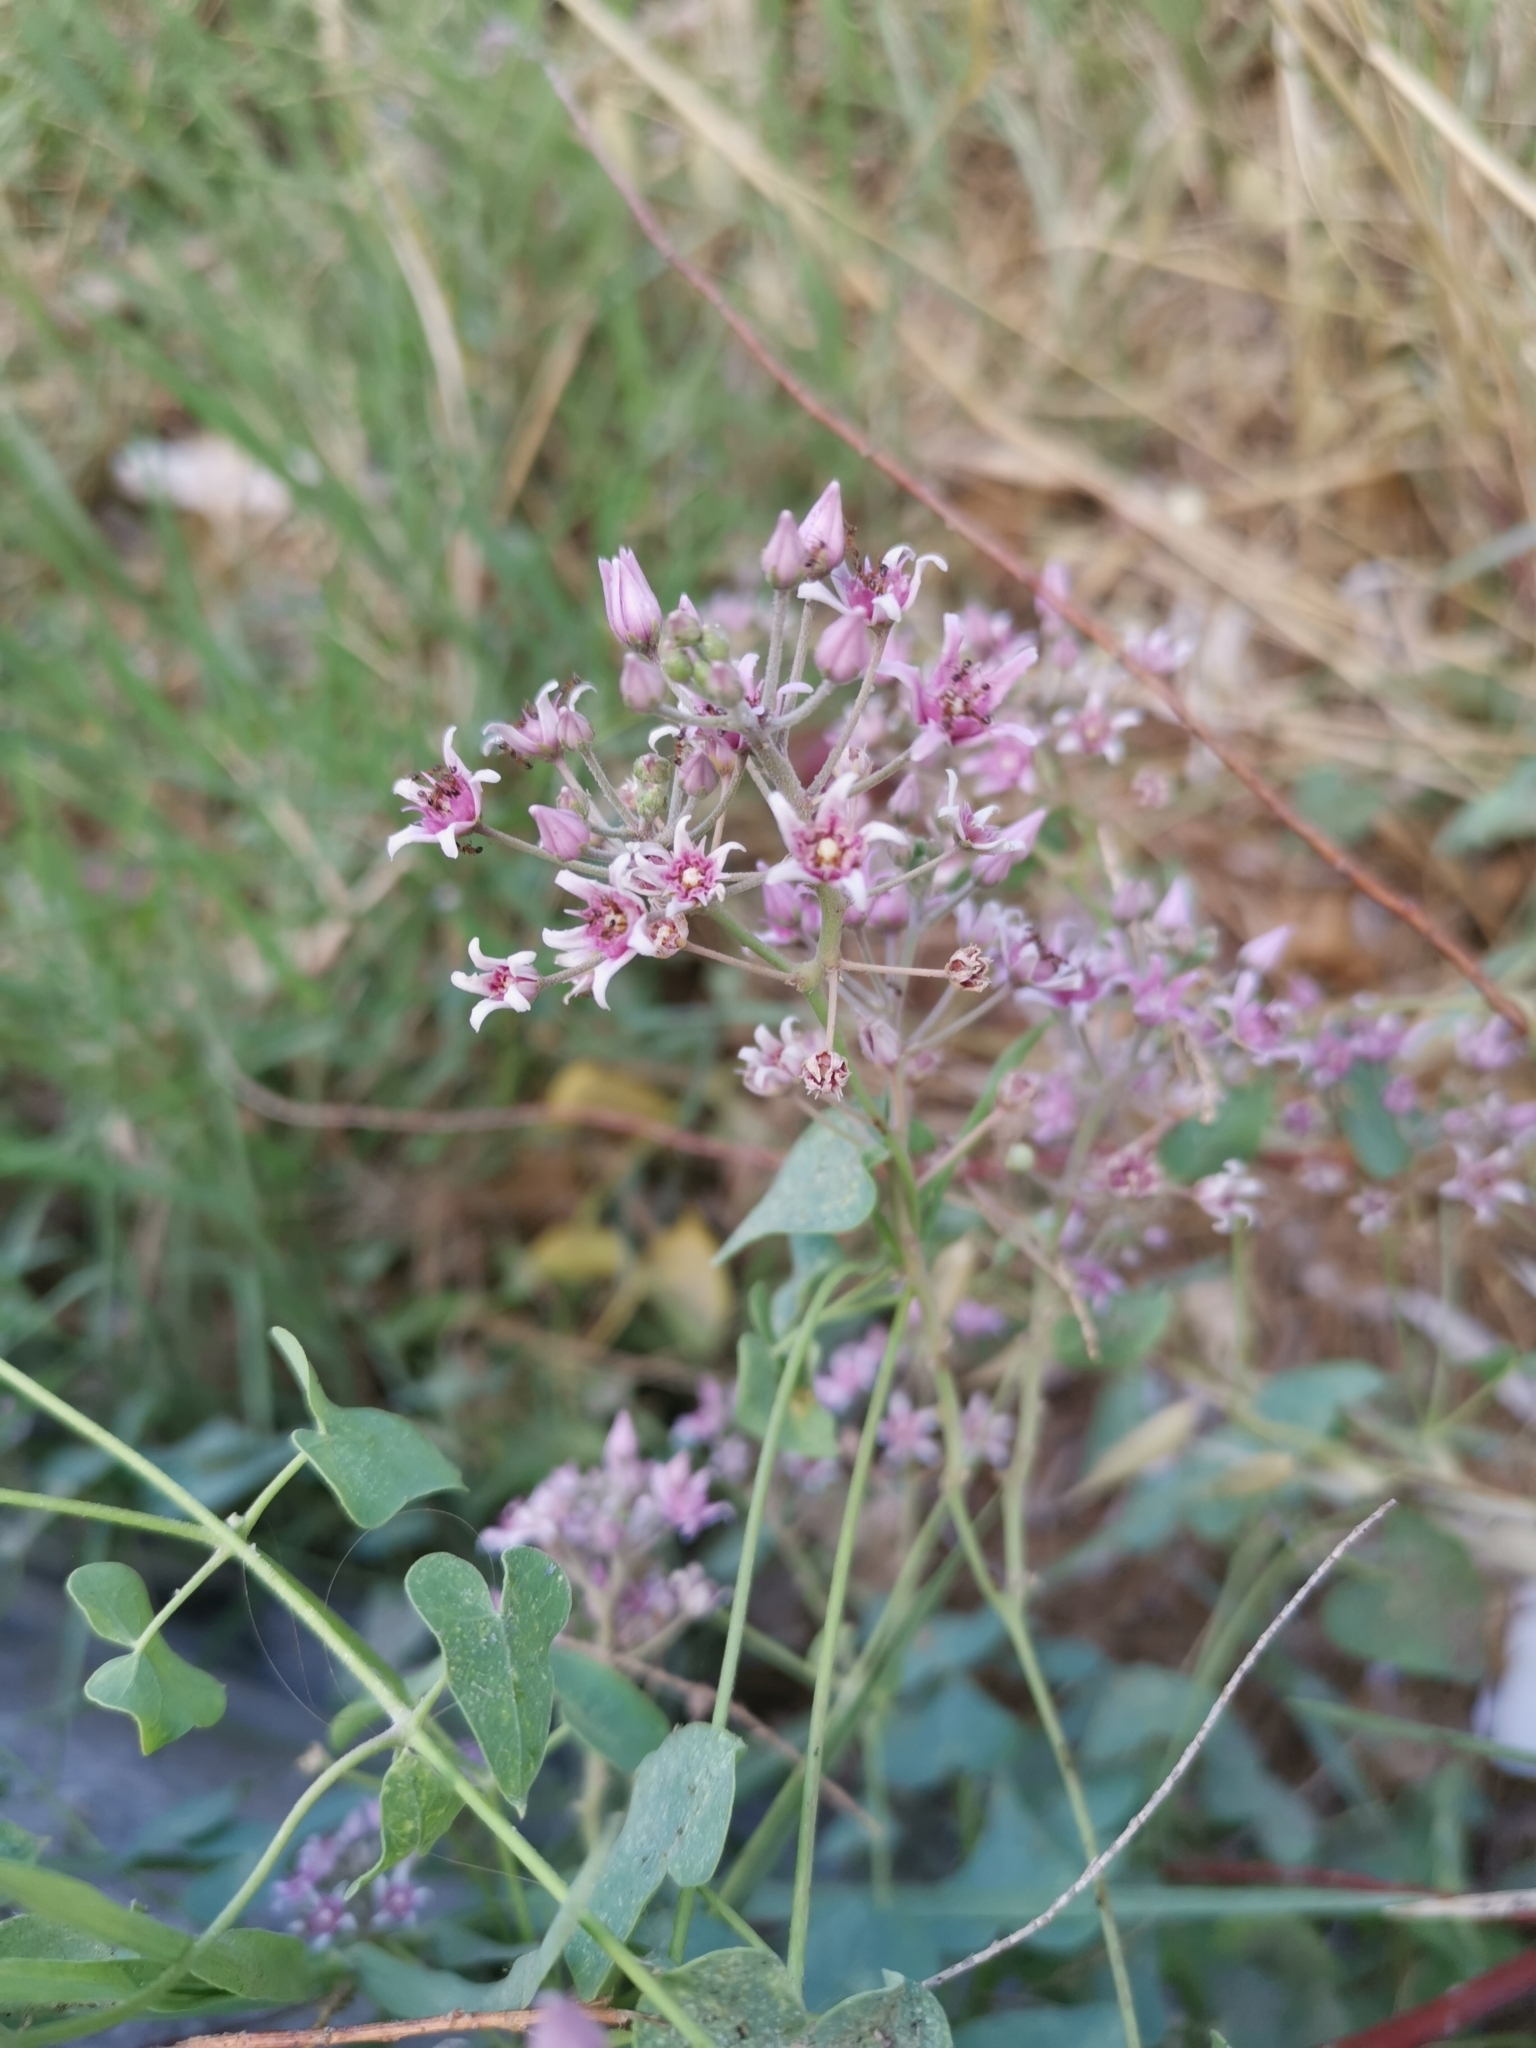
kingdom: Plantae
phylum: Tracheophyta
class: Magnoliopsida
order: Gentianales
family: Apocynaceae
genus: Cynanchum
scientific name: Cynanchum acutum
